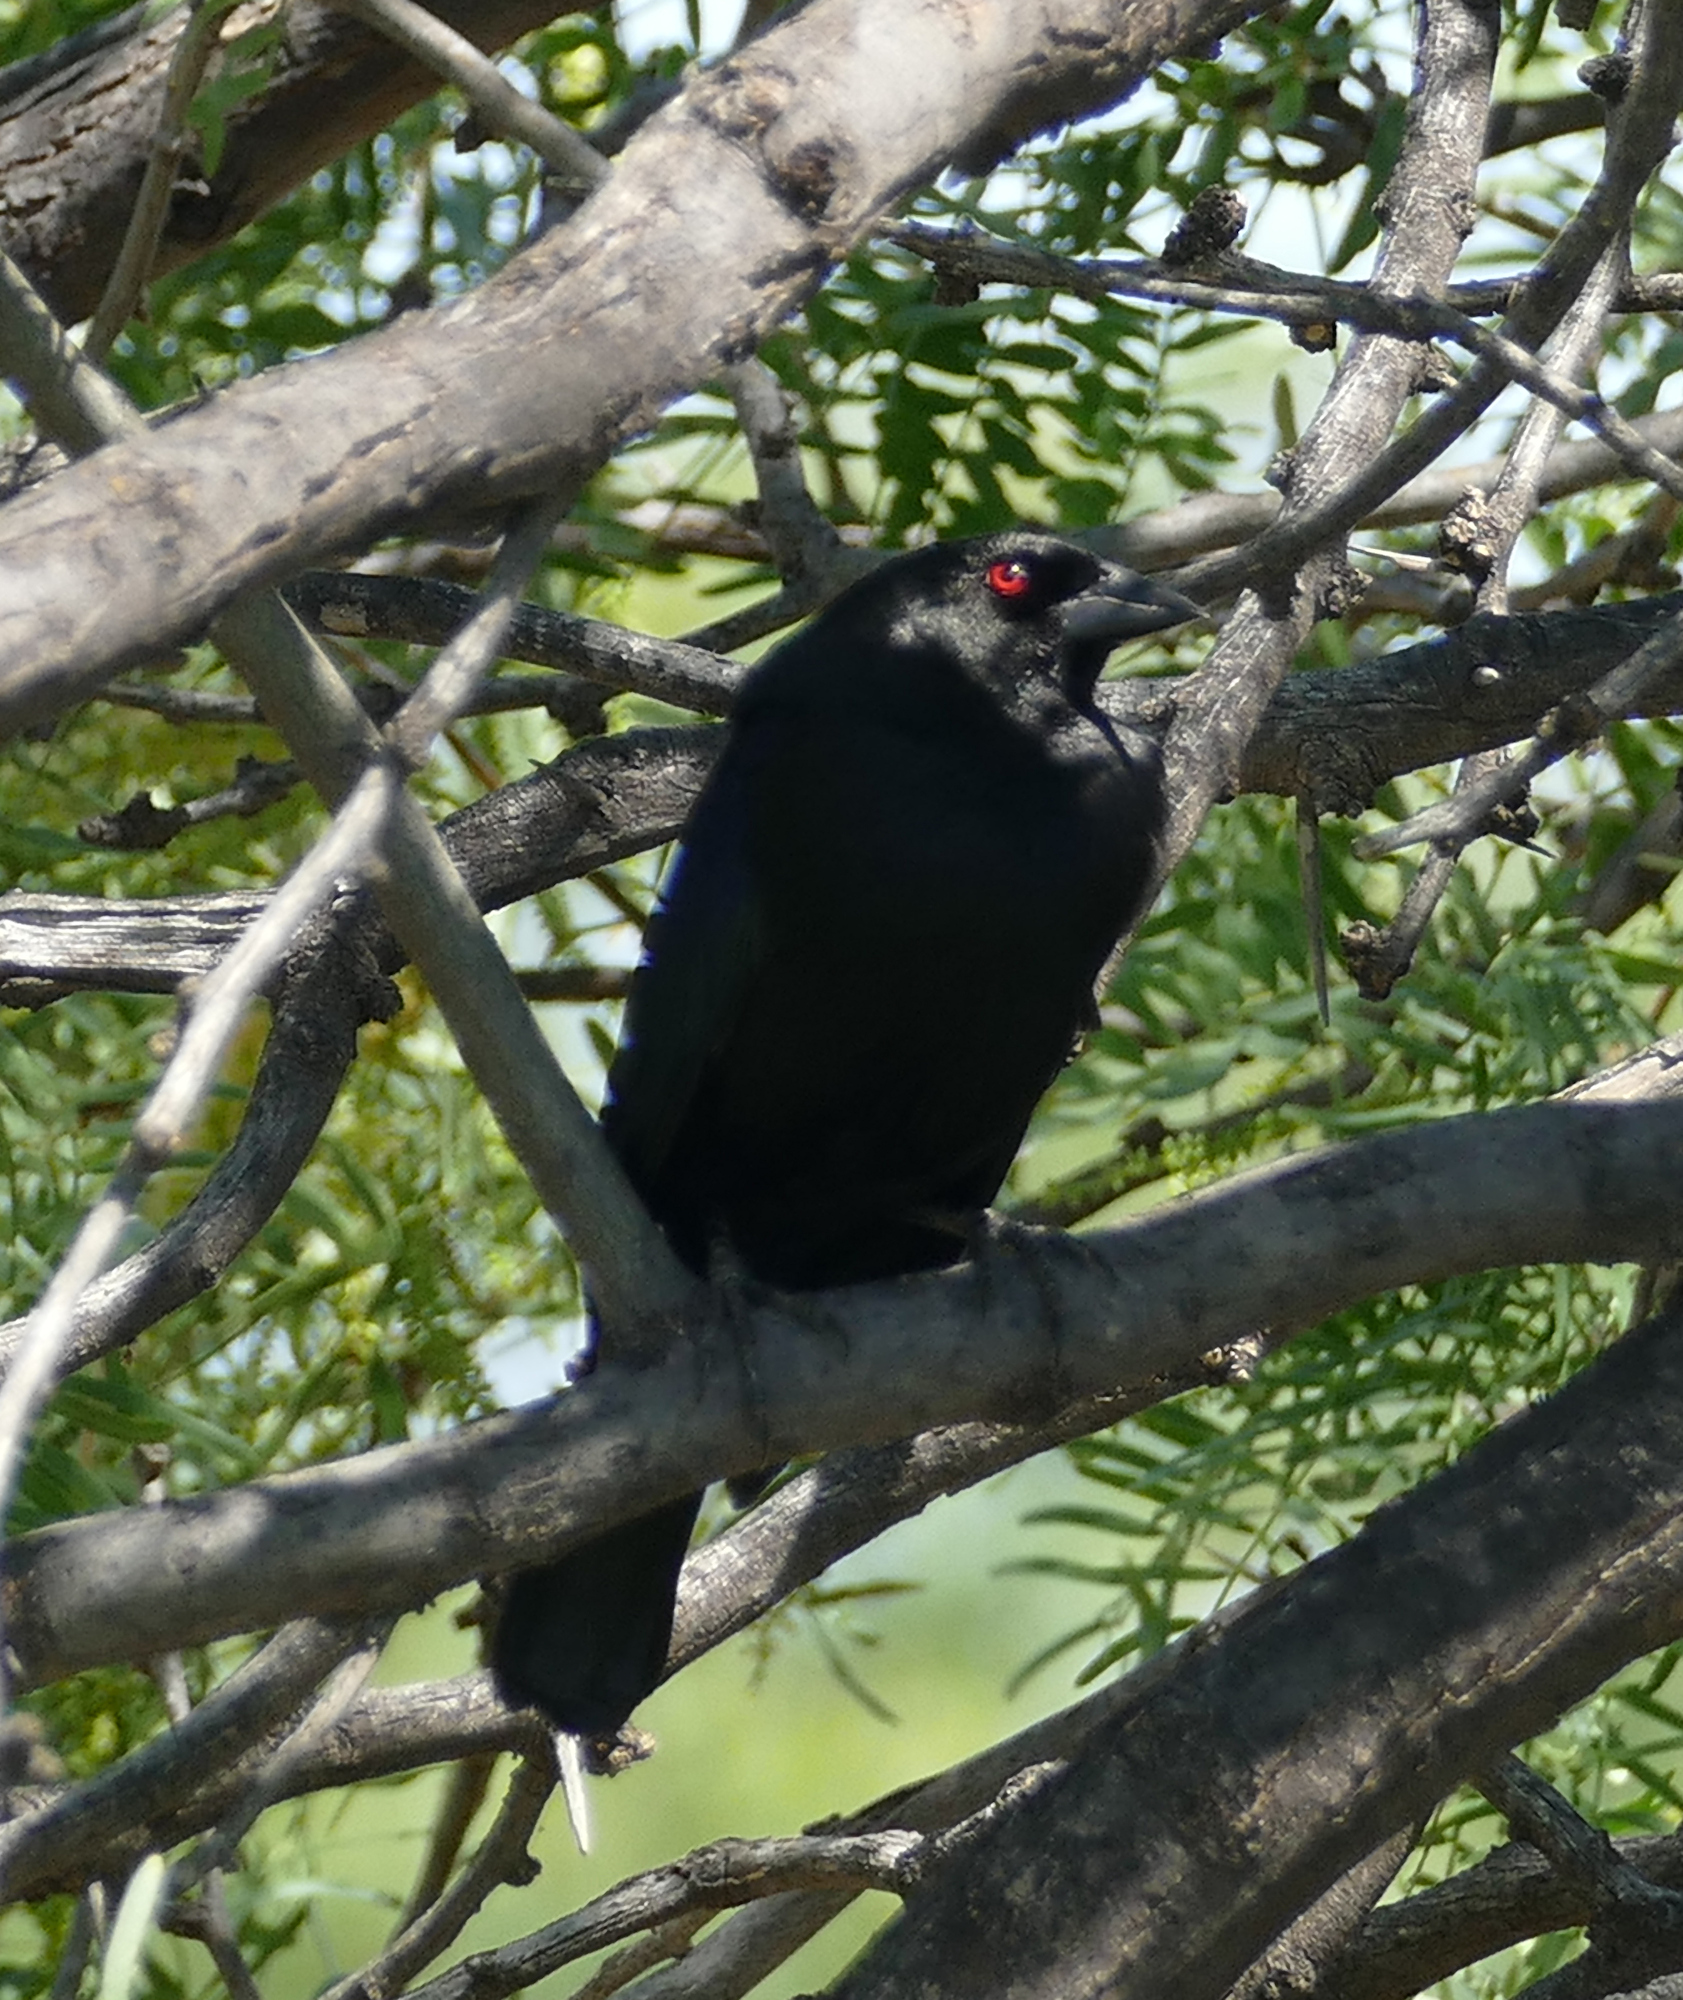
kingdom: Animalia
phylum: Chordata
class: Aves
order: Passeriformes
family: Icteridae
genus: Molothrus
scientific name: Molothrus aeneus
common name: Bronzed cowbird
